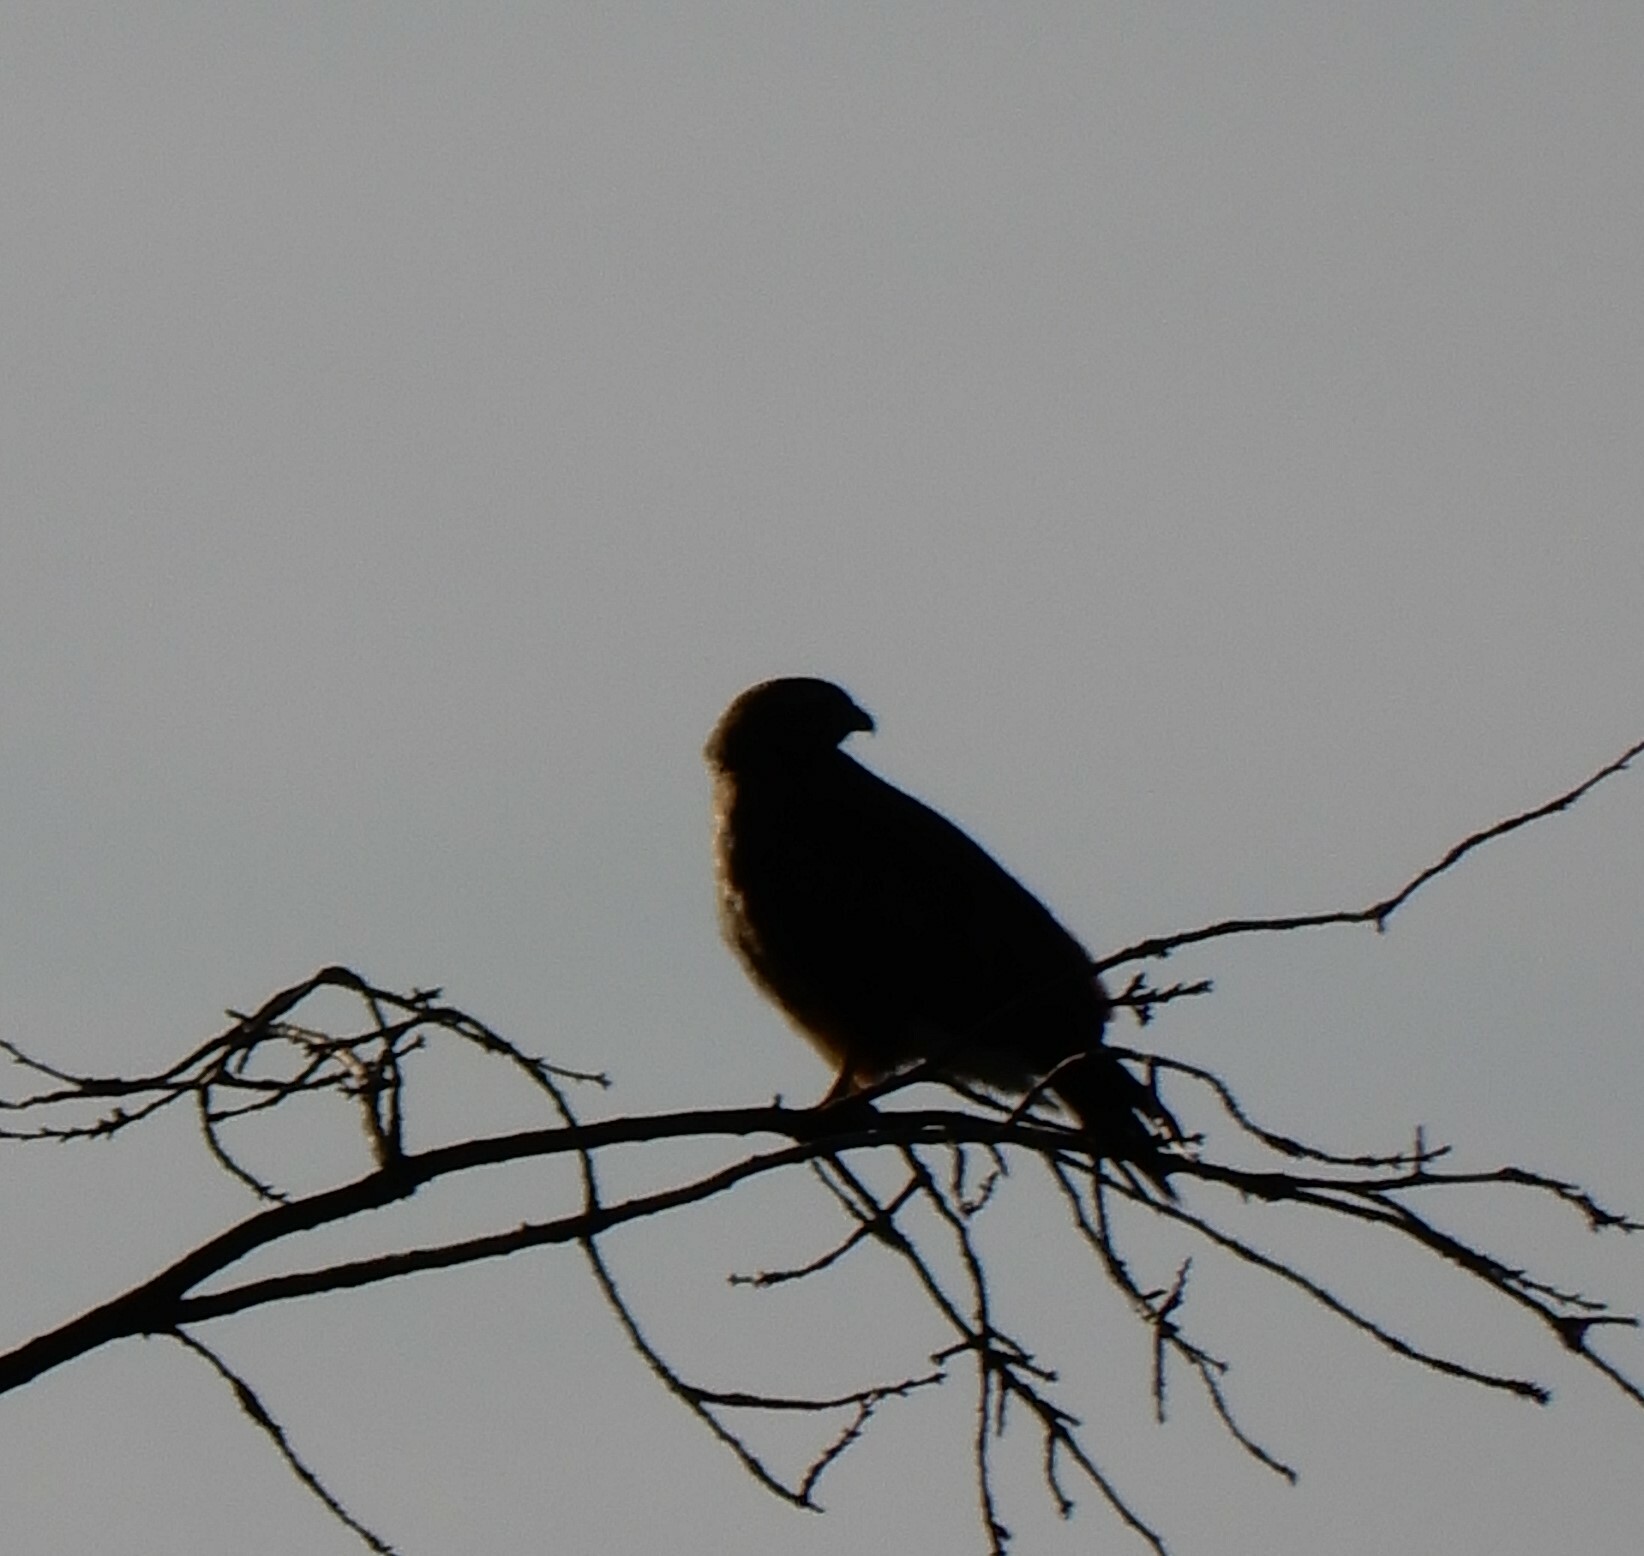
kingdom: Animalia
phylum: Chordata
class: Aves
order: Accipitriformes
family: Accipitridae
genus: Buteo
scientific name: Buteo buteo
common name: Common buzzard
